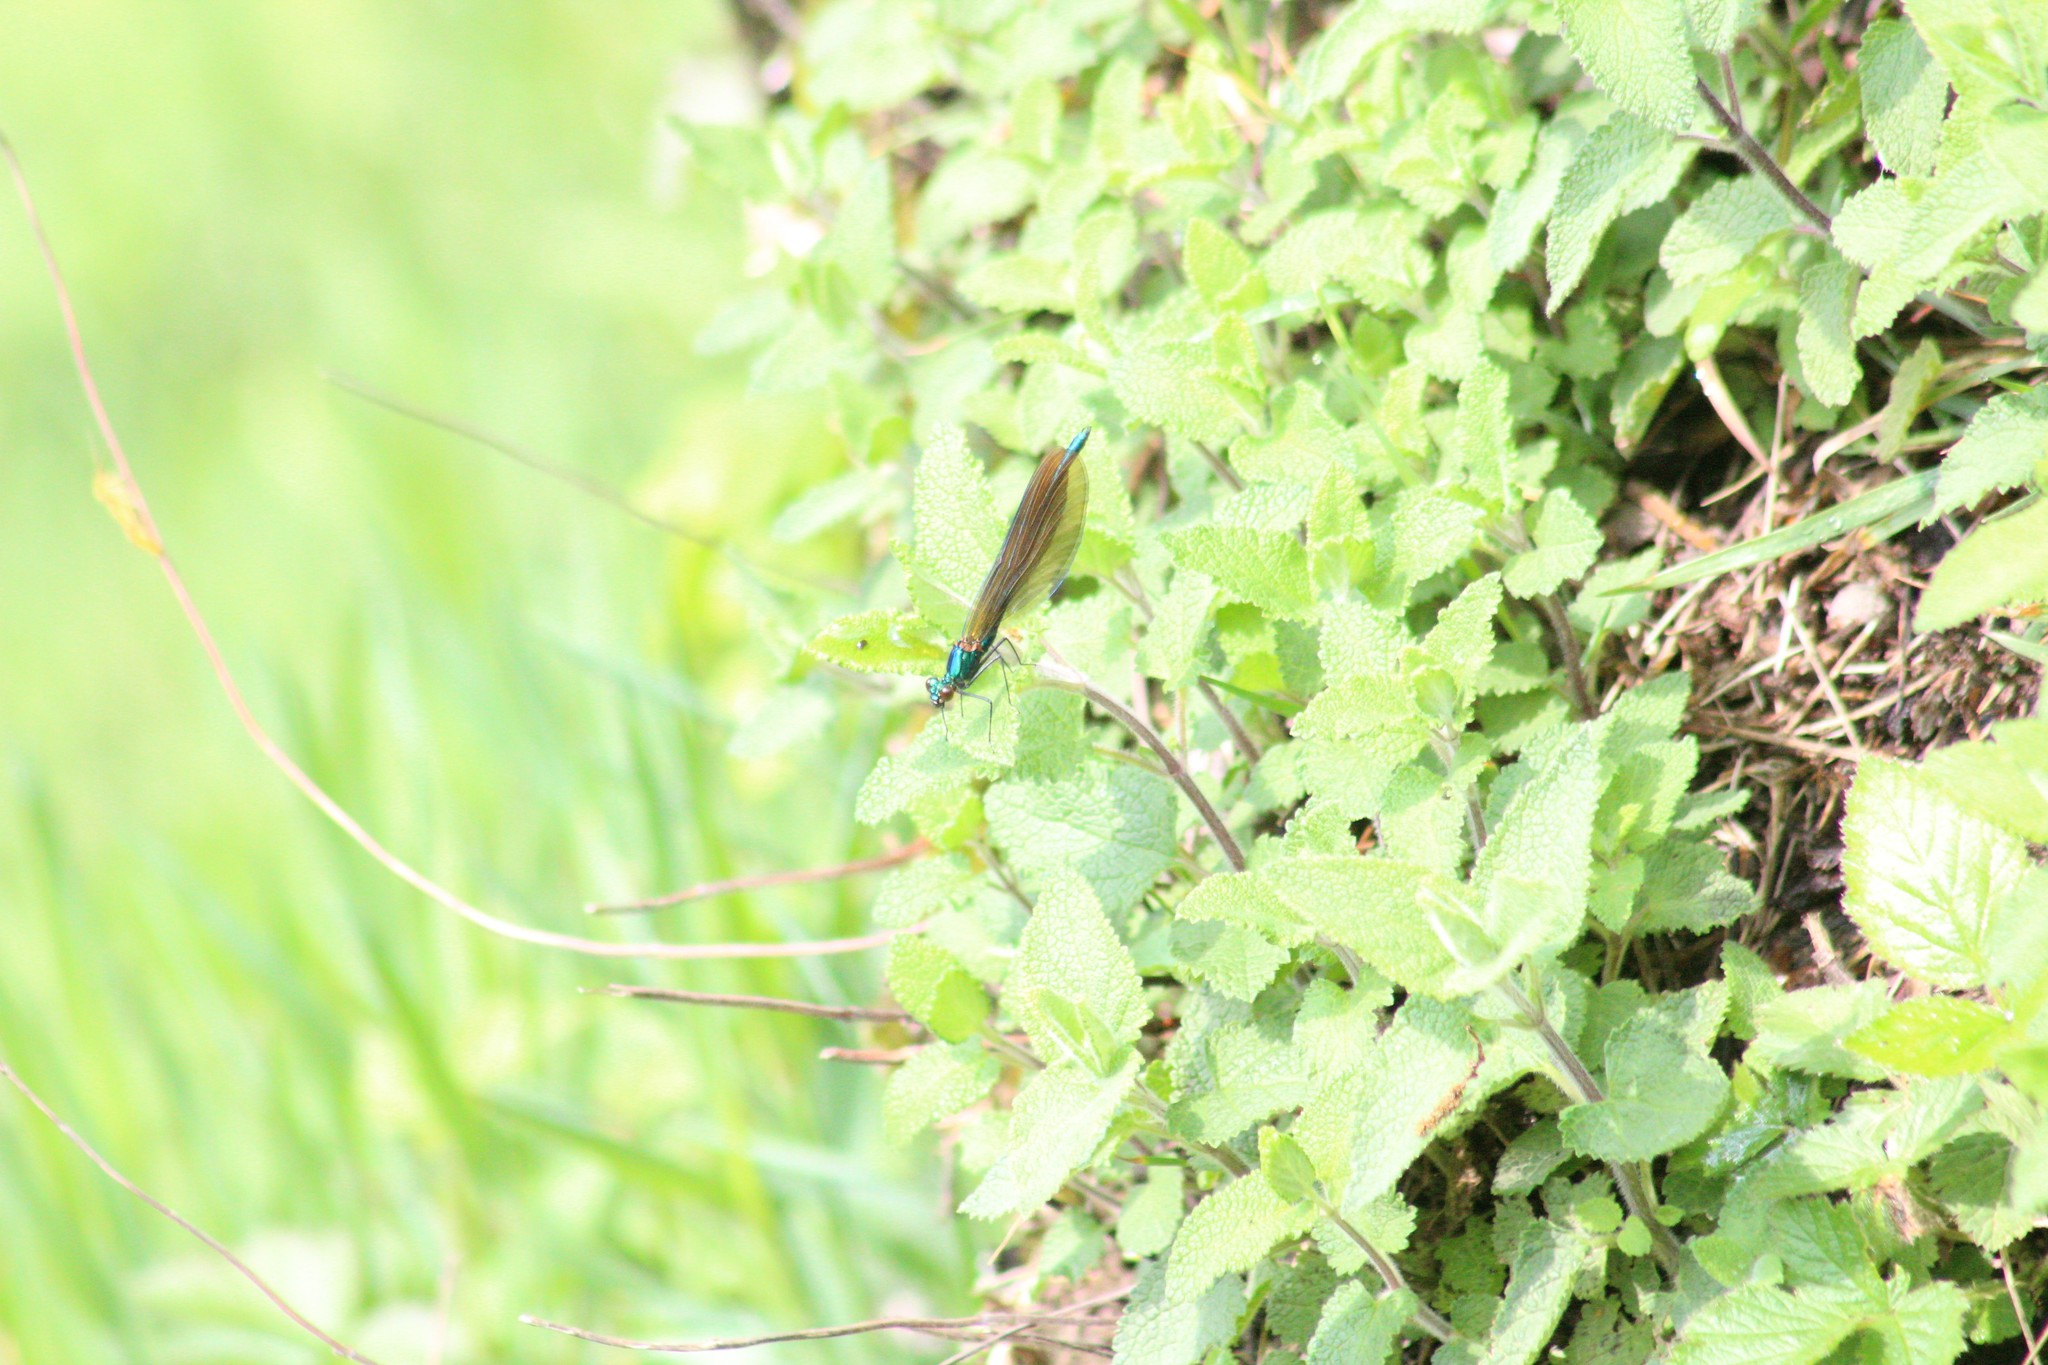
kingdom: Animalia
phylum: Arthropoda
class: Insecta
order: Odonata
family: Calopterygidae
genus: Calopteryx
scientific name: Calopteryx virgo
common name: Beautiful demoiselle
